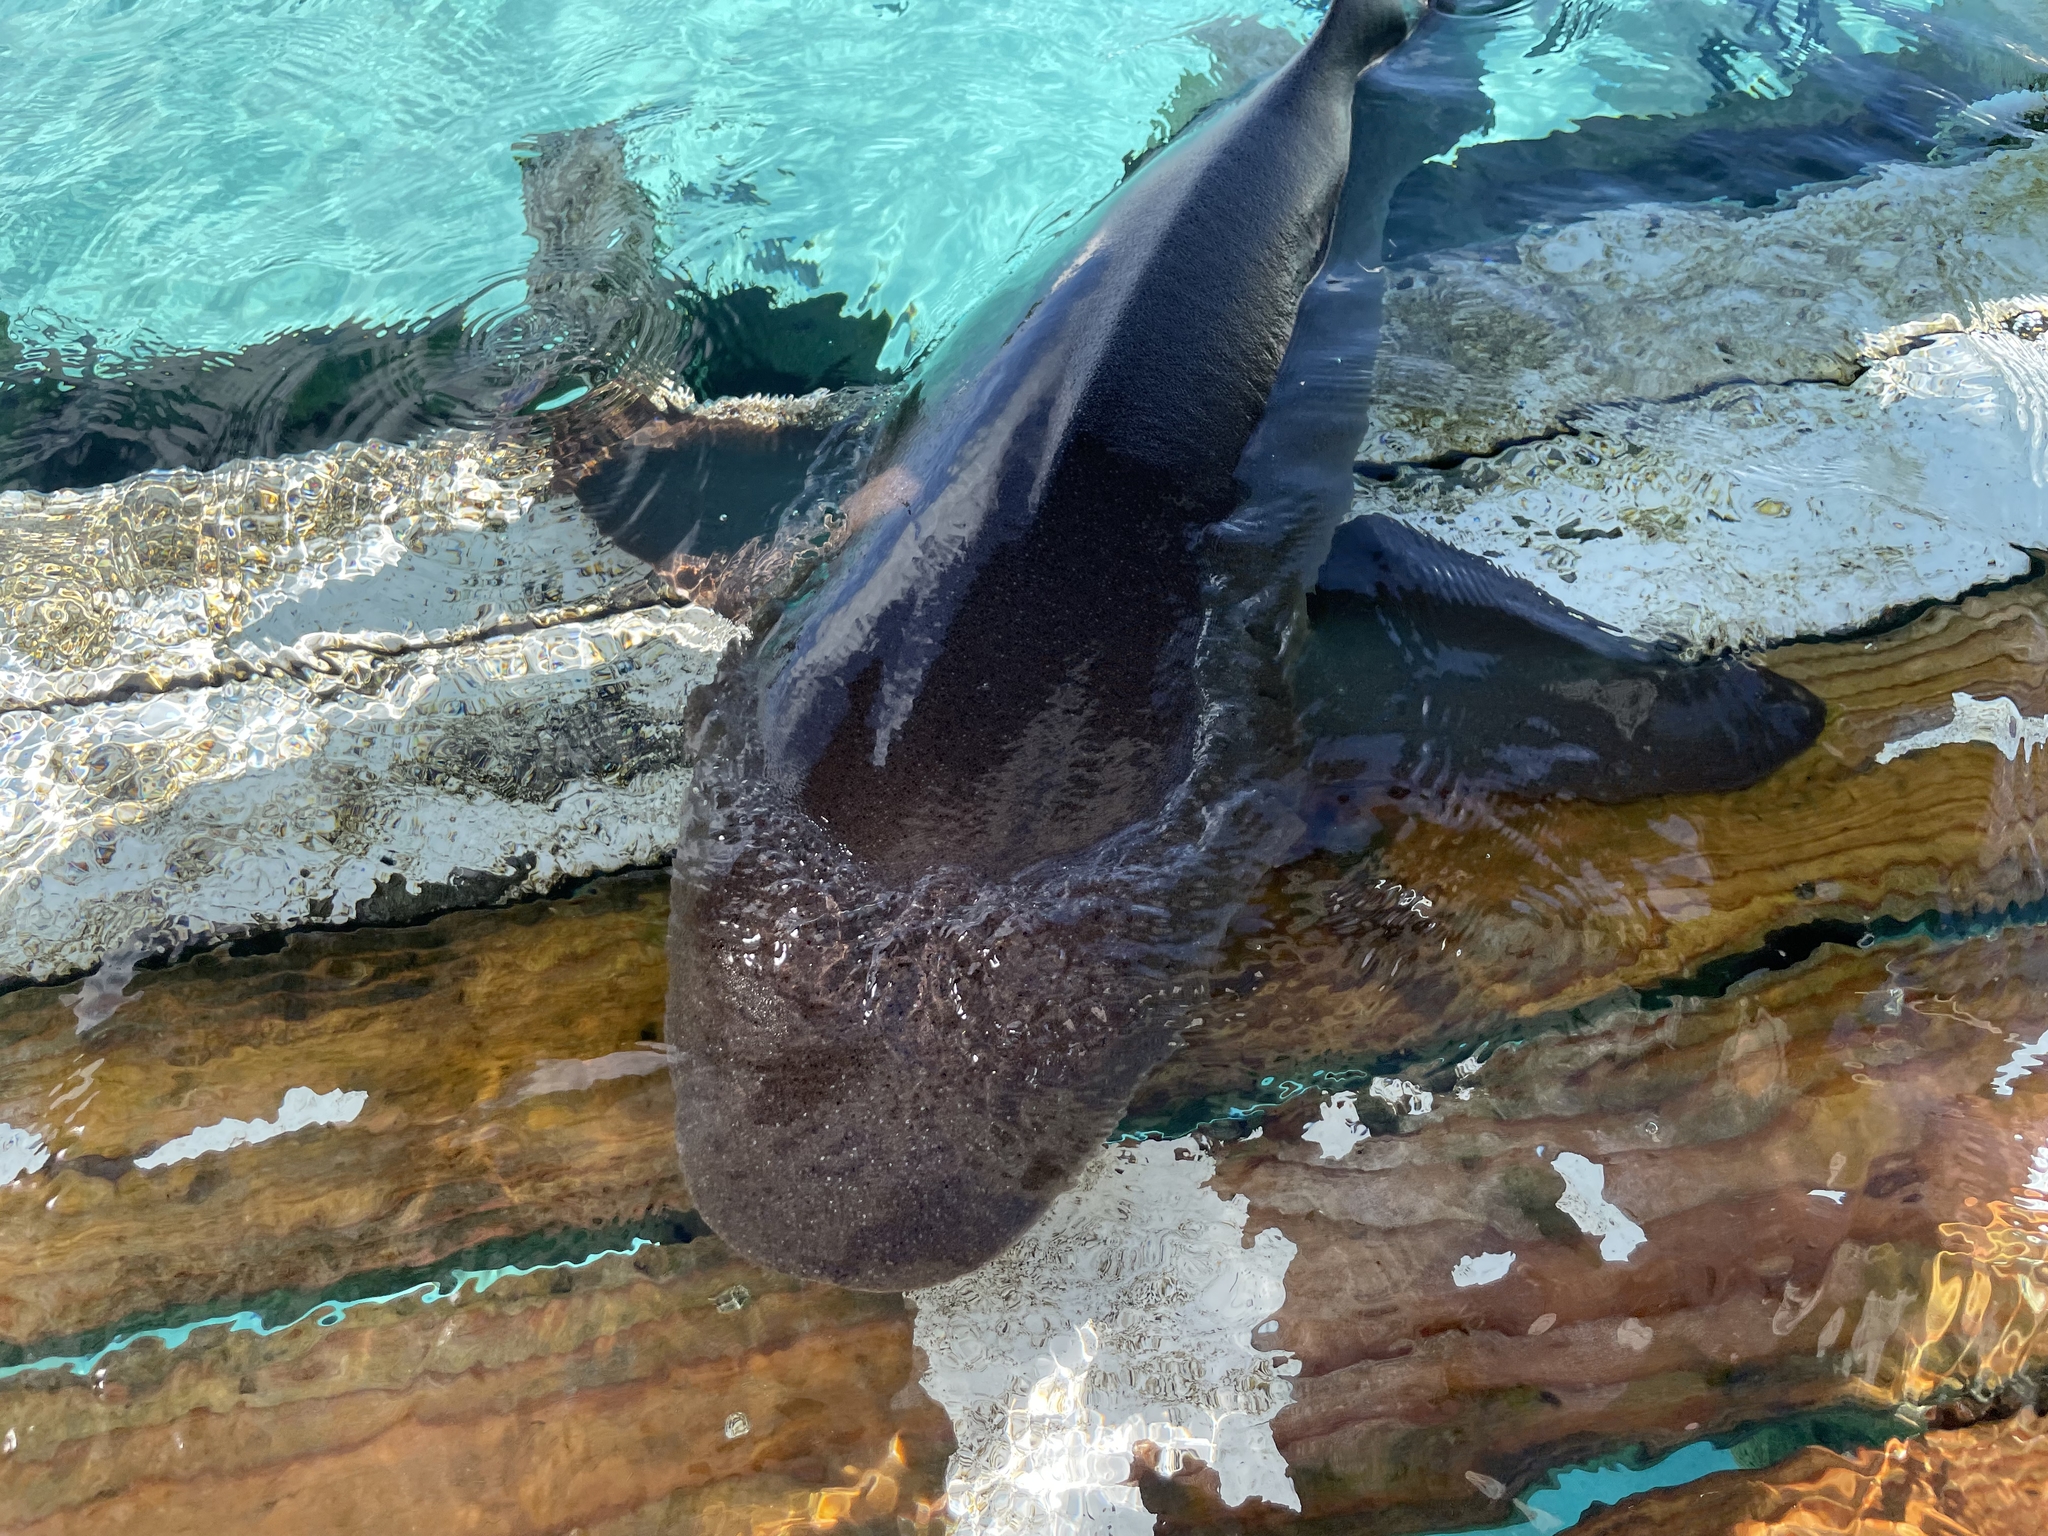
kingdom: Animalia
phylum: Chordata
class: Elasmobranchii
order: Orectolobiformes
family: Ginglymostomatidae
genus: Ginglymostoma
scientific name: Ginglymostoma cirratum
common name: Nurse shark
